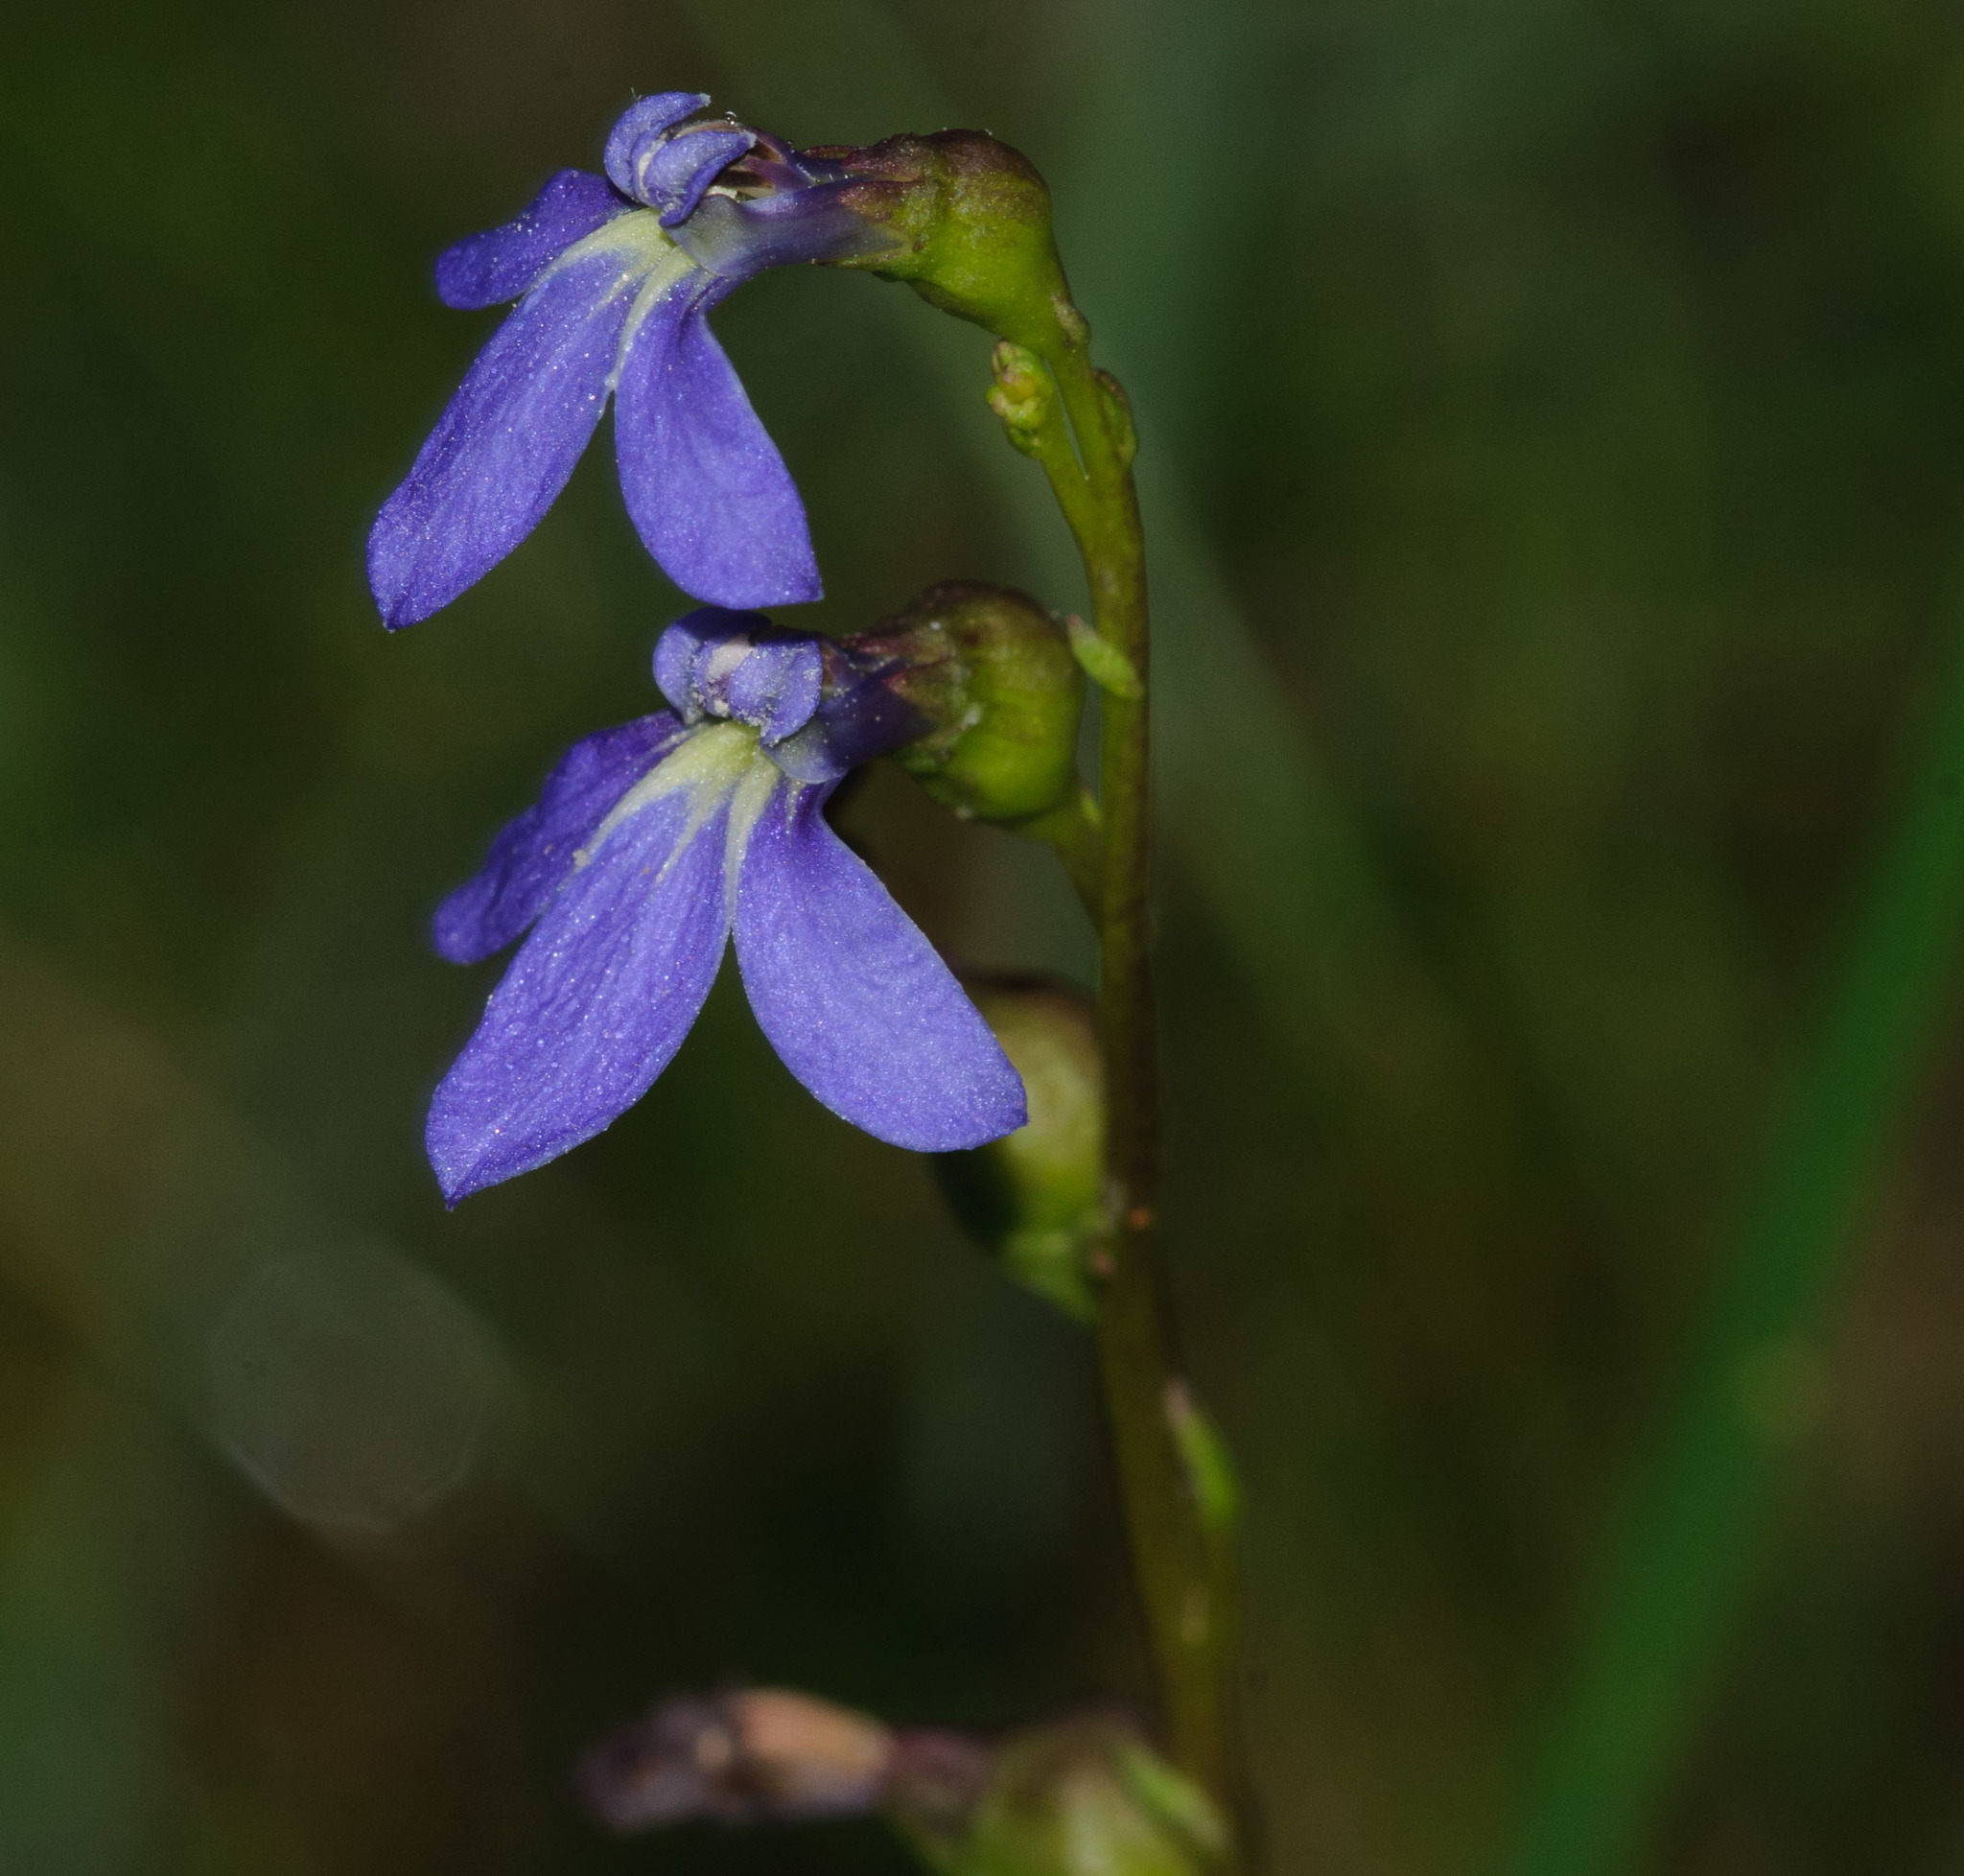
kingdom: Plantae
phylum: Tracheophyta
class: Magnoliopsida
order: Asterales
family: Campanulaceae
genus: Lobelia
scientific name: Lobelia gibbosa
